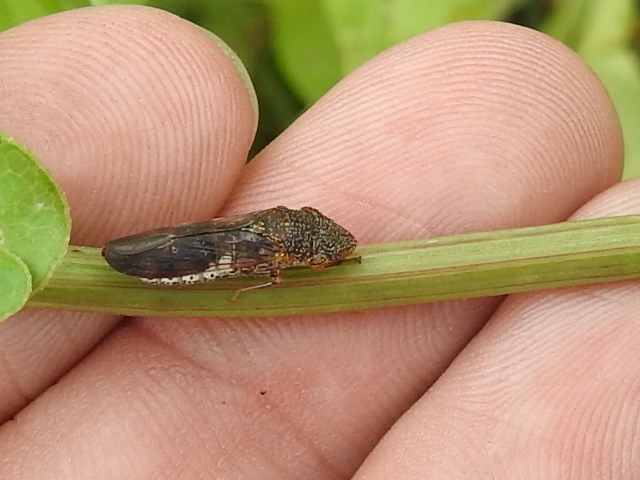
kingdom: Animalia
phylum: Arthropoda
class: Insecta
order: Hemiptera
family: Cicadellidae
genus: Homalodisca
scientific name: Homalodisca vitripennis
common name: Glassy-winged sharpshooter
